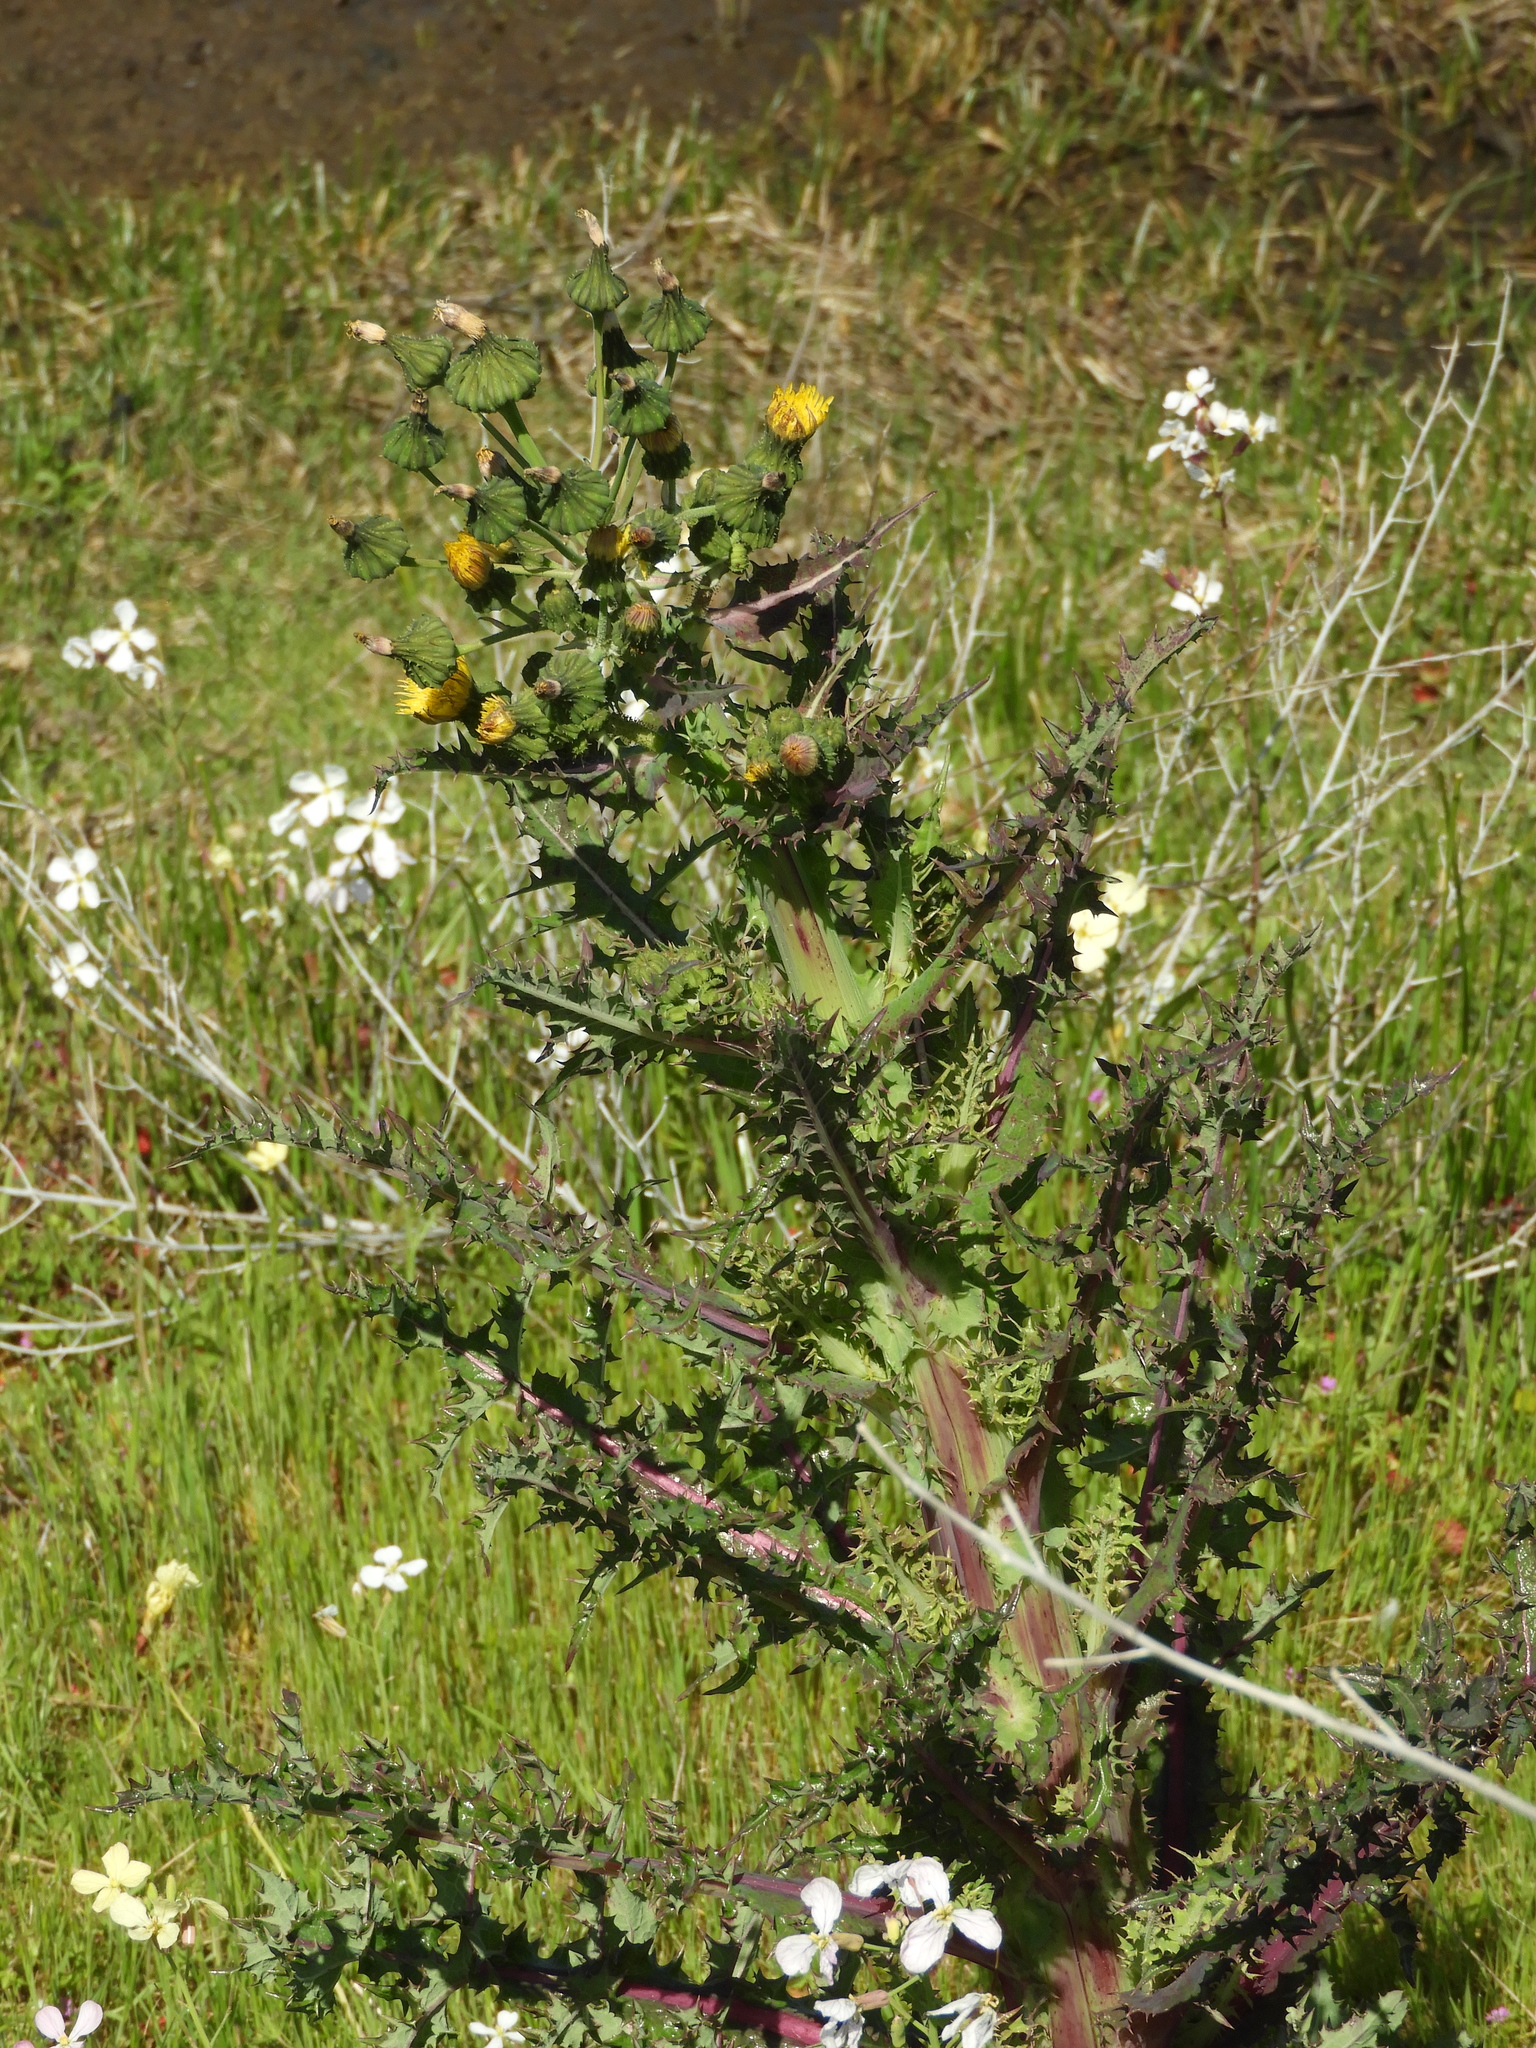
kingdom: Plantae
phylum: Tracheophyta
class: Magnoliopsida
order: Asterales
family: Asteraceae
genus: Sonchus
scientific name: Sonchus asper
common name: Prickly sow-thistle
